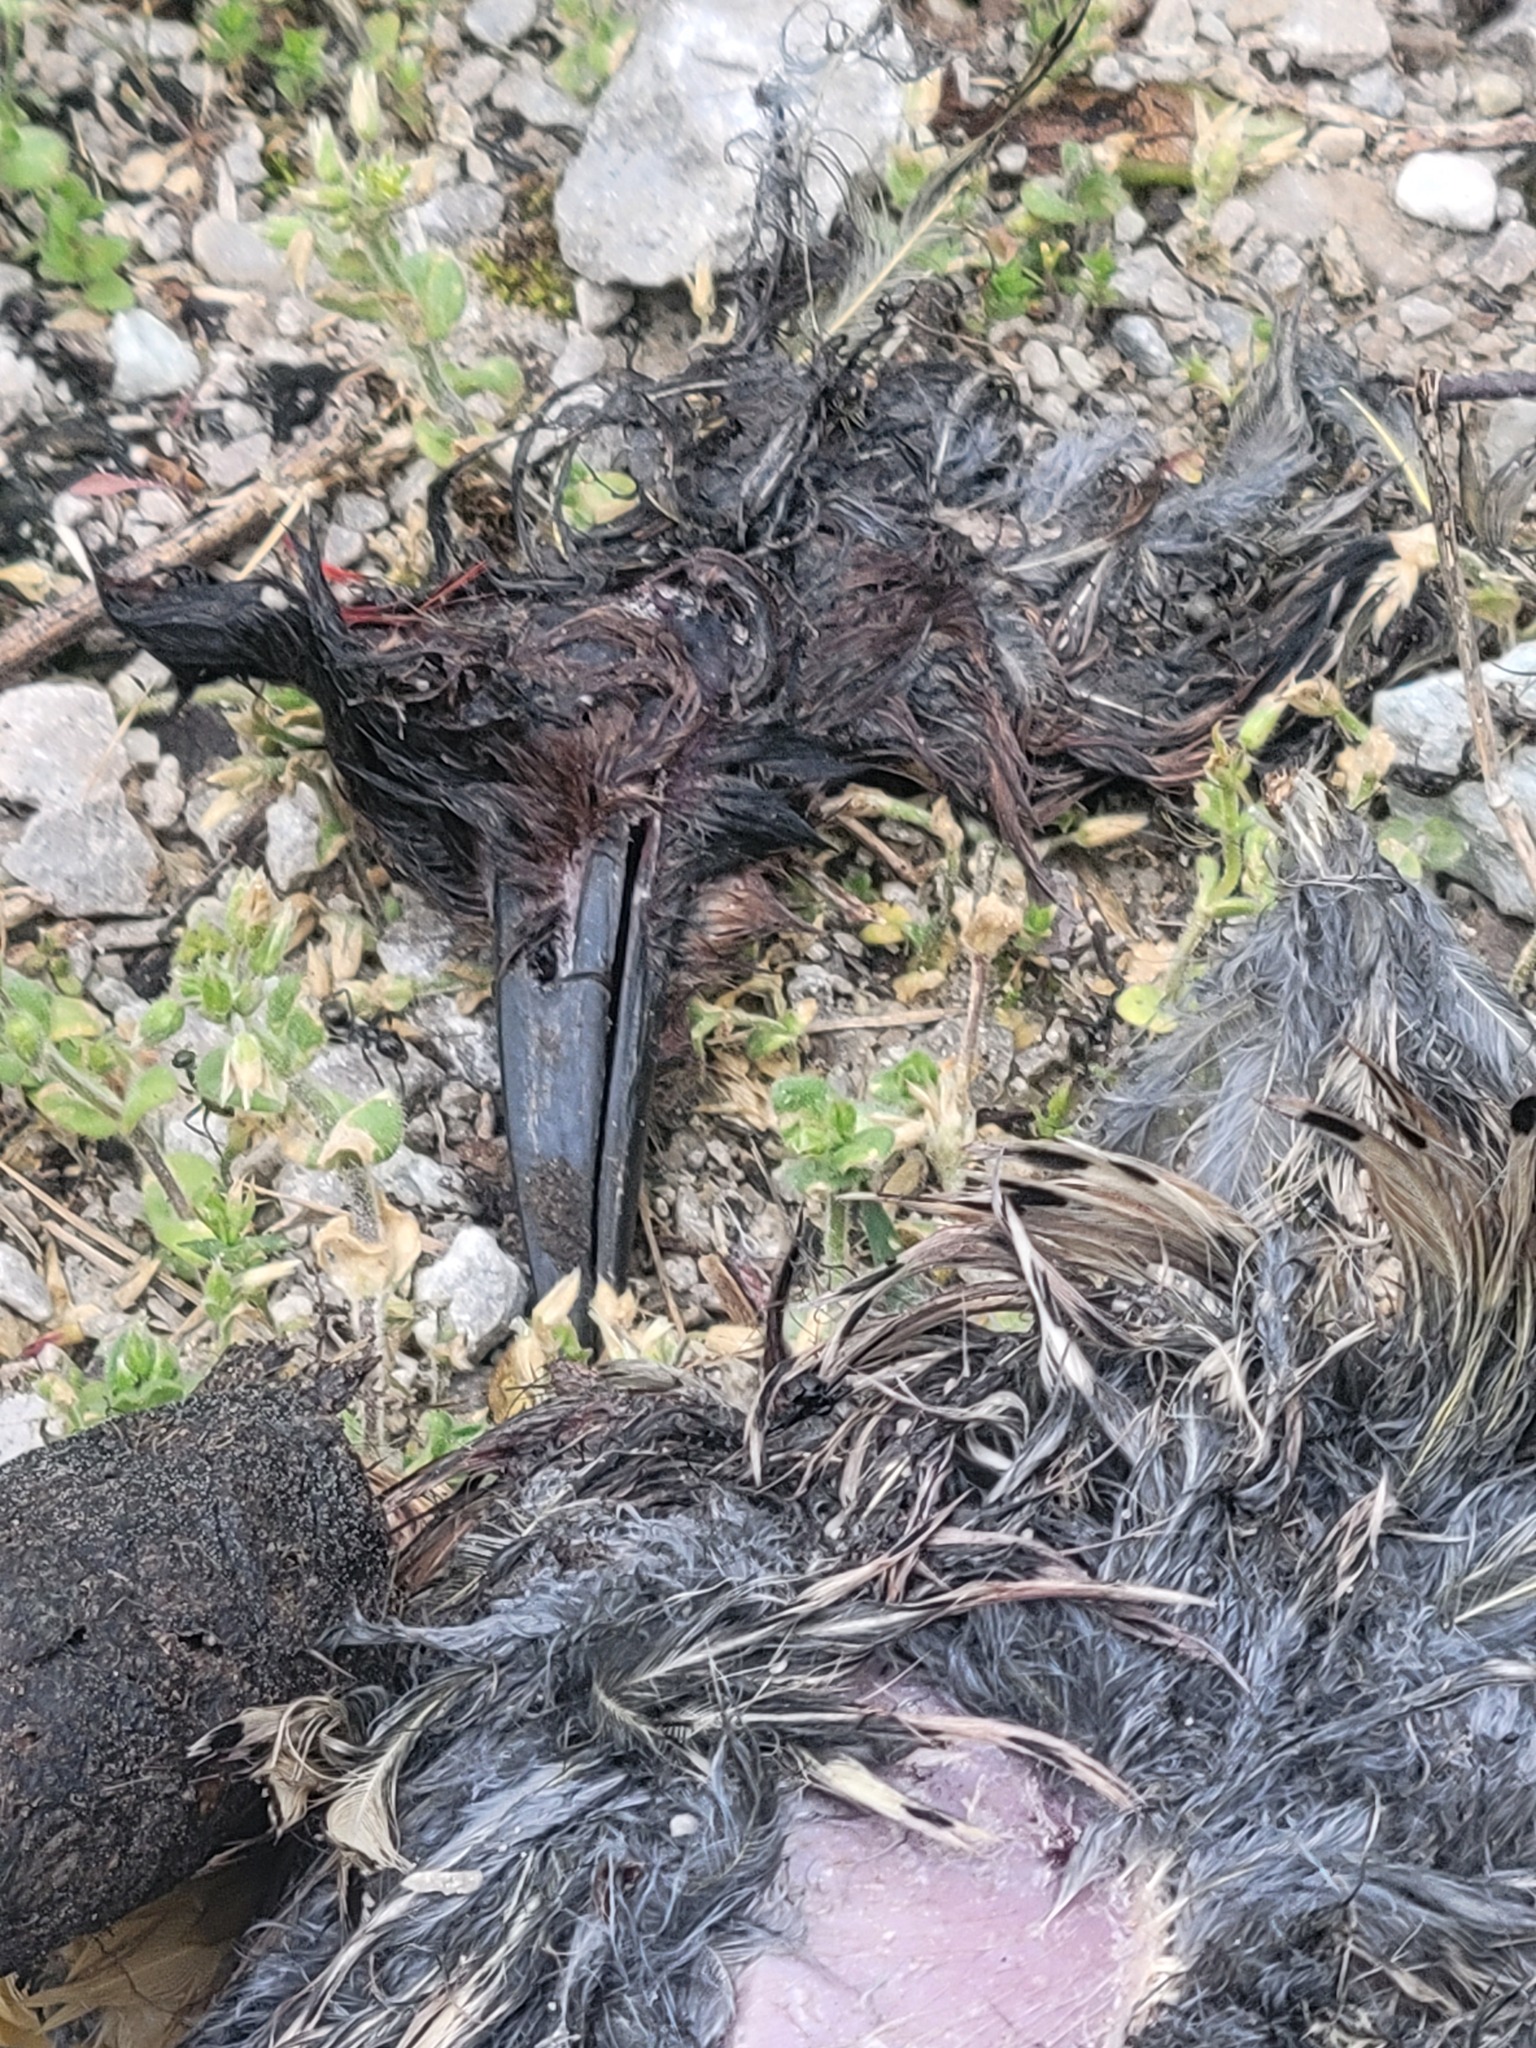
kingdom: Animalia
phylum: Chordata
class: Aves
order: Piciformes
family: Picidae
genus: Colaptes
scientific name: Colaptes auratus
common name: Northern flicker
